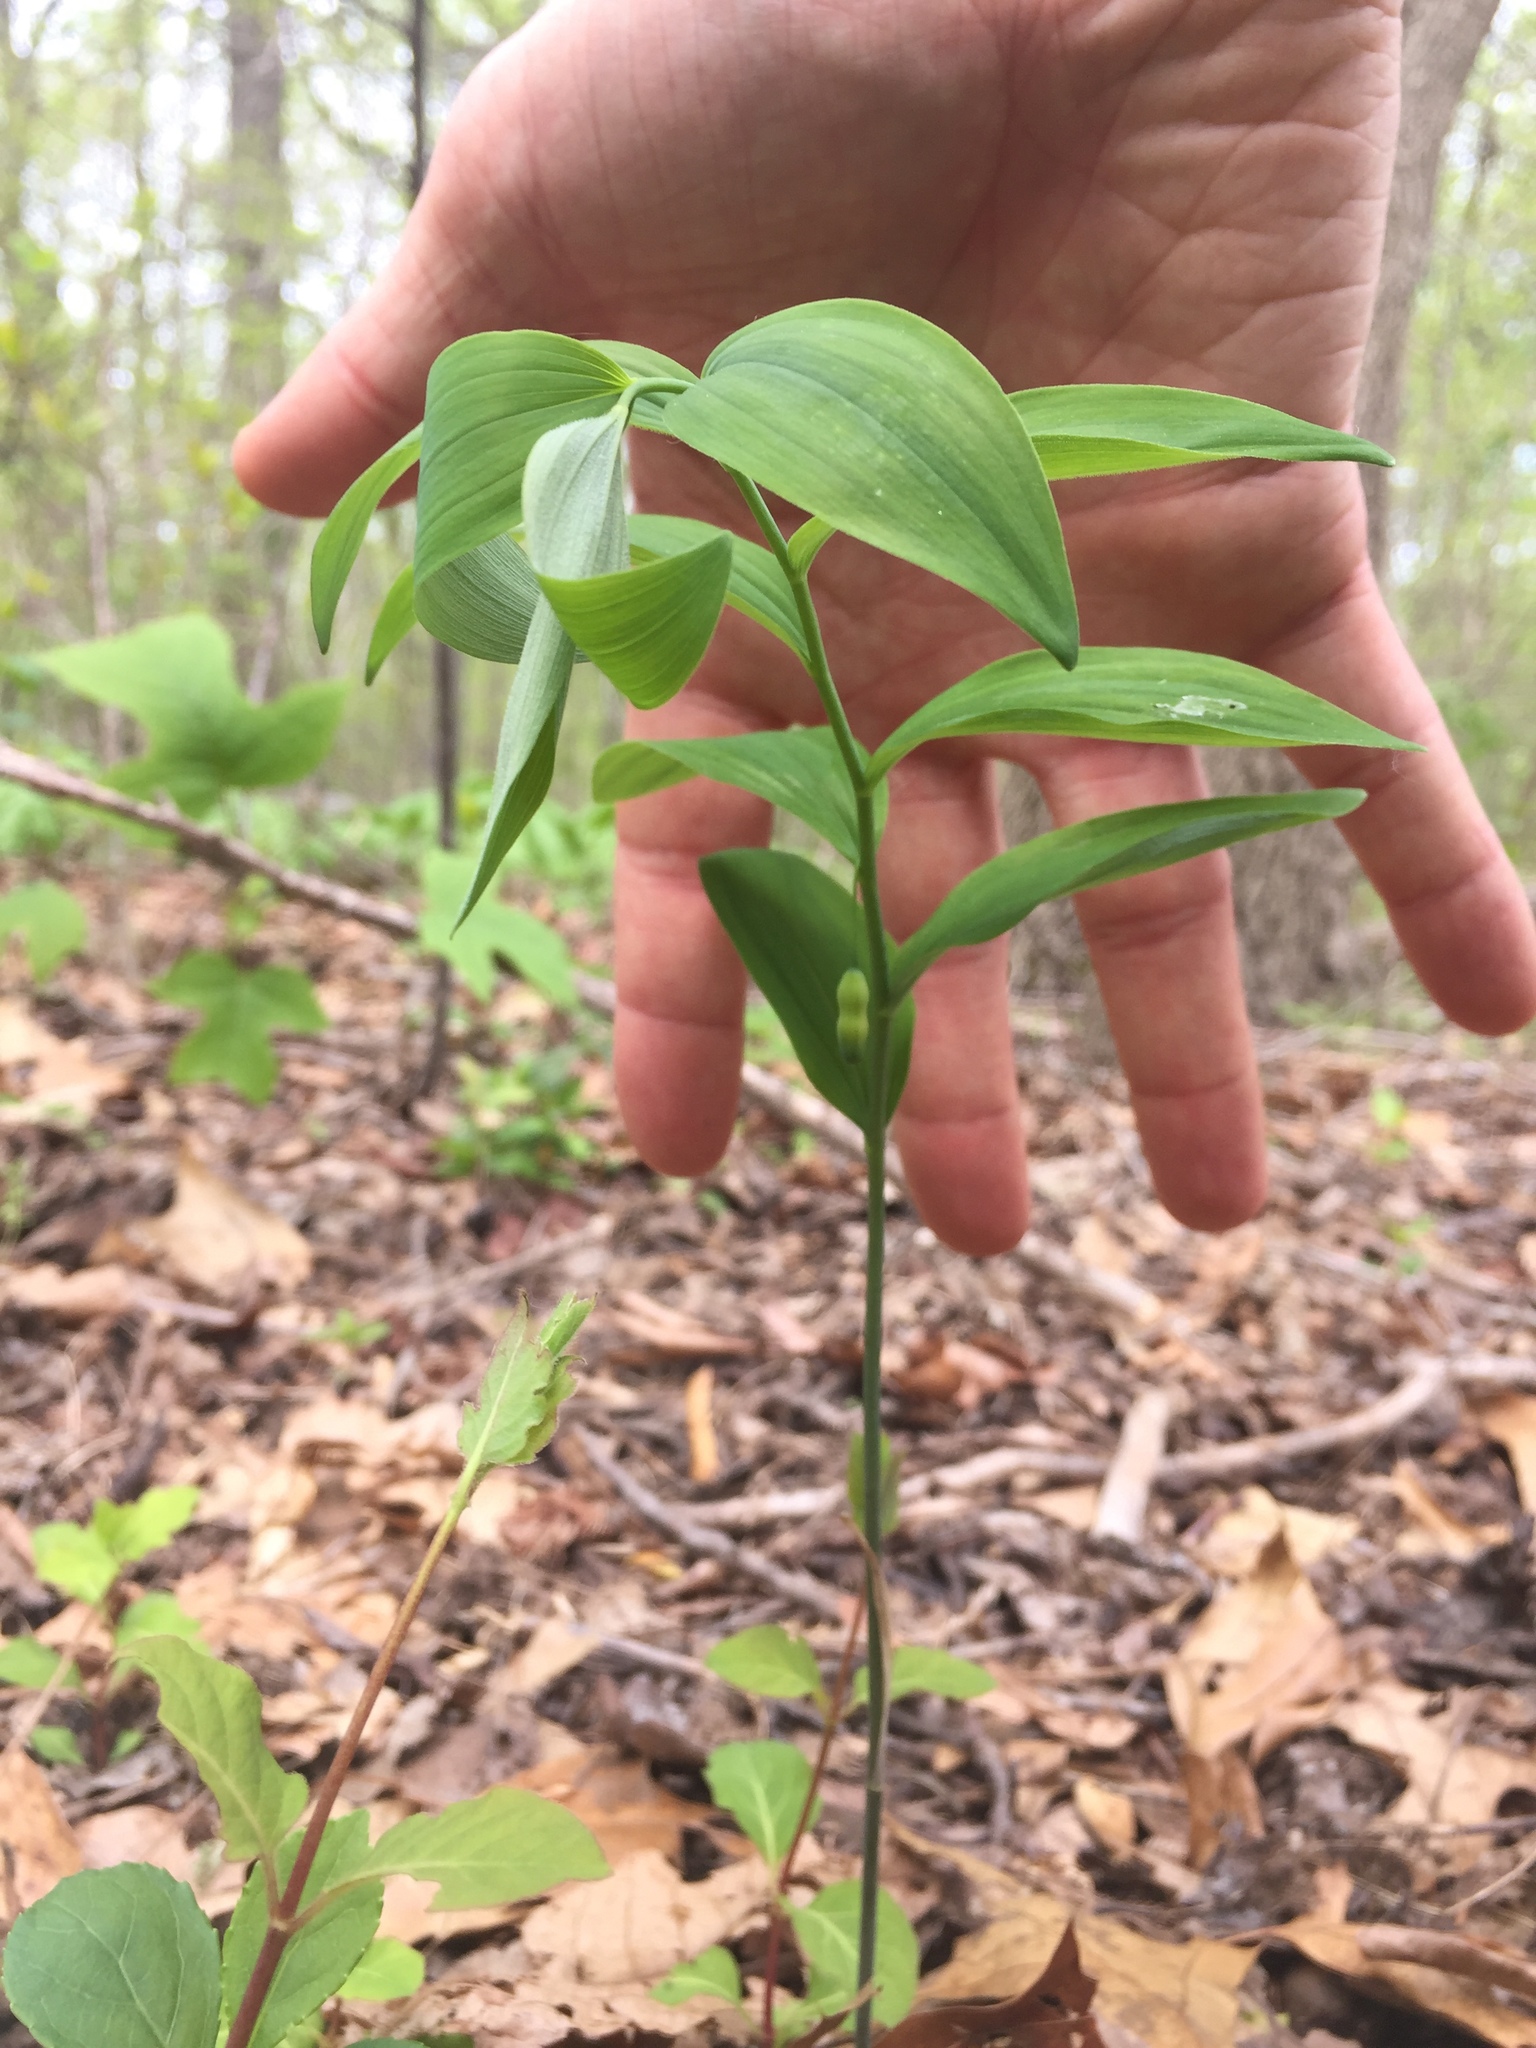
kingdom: Plantae
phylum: Tracheophyta
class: Liliopsida
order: Asparagales
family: Asparagaceae
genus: Polygonatum
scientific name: Polygonatum pubescens
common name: Downy solomon's seal
